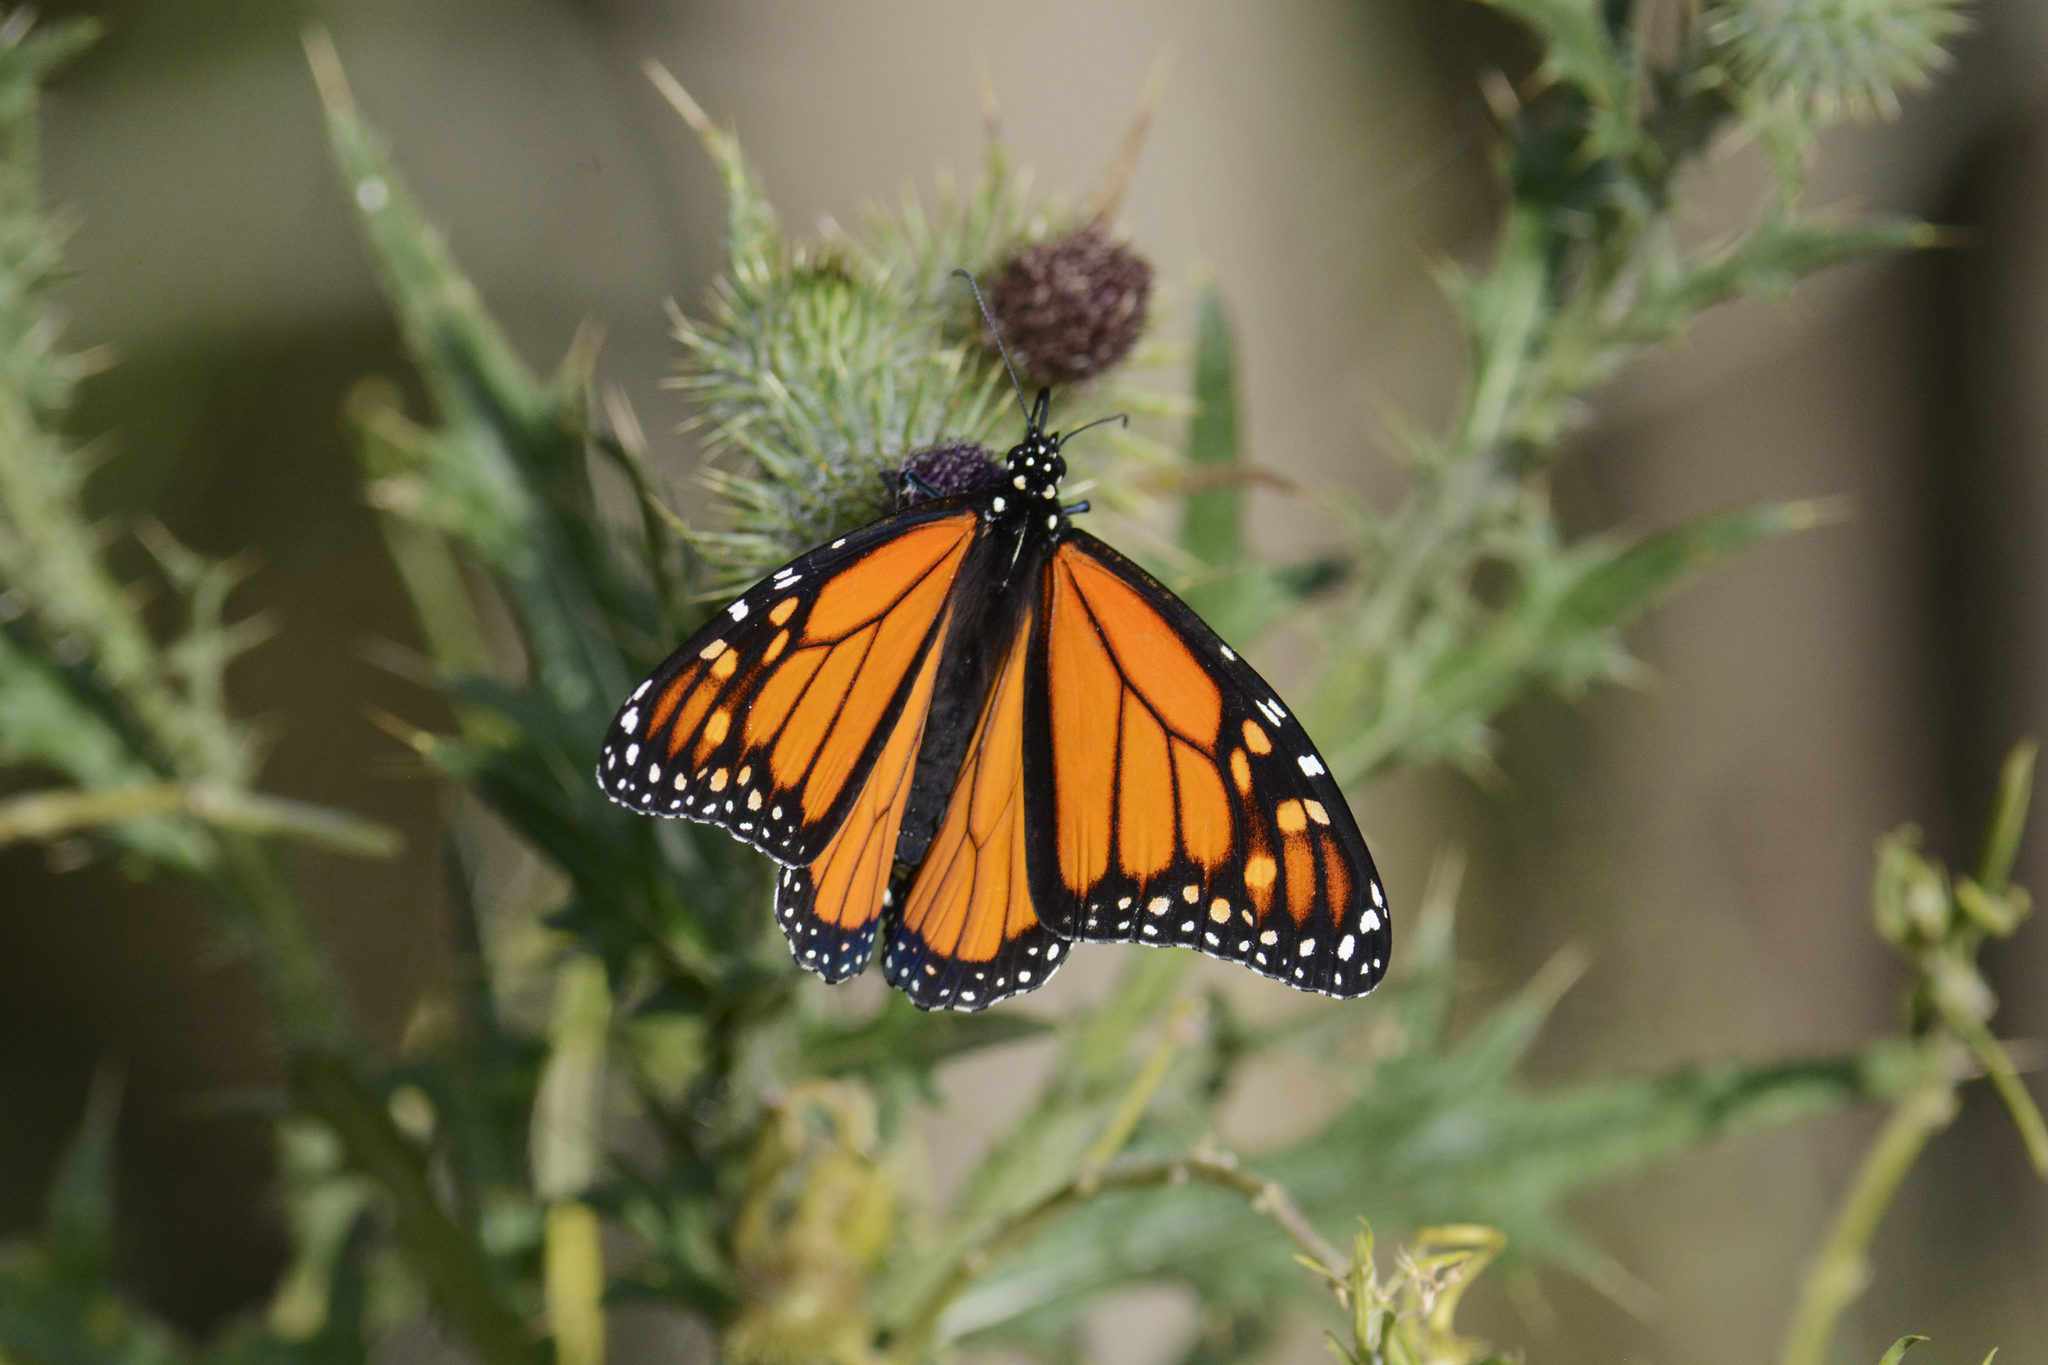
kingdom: Animalia
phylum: Arthropoda
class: Insecta
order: Lepidoptera
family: Nymphalidae
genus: Danaus
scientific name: Danaus plexippus
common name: Monarch
